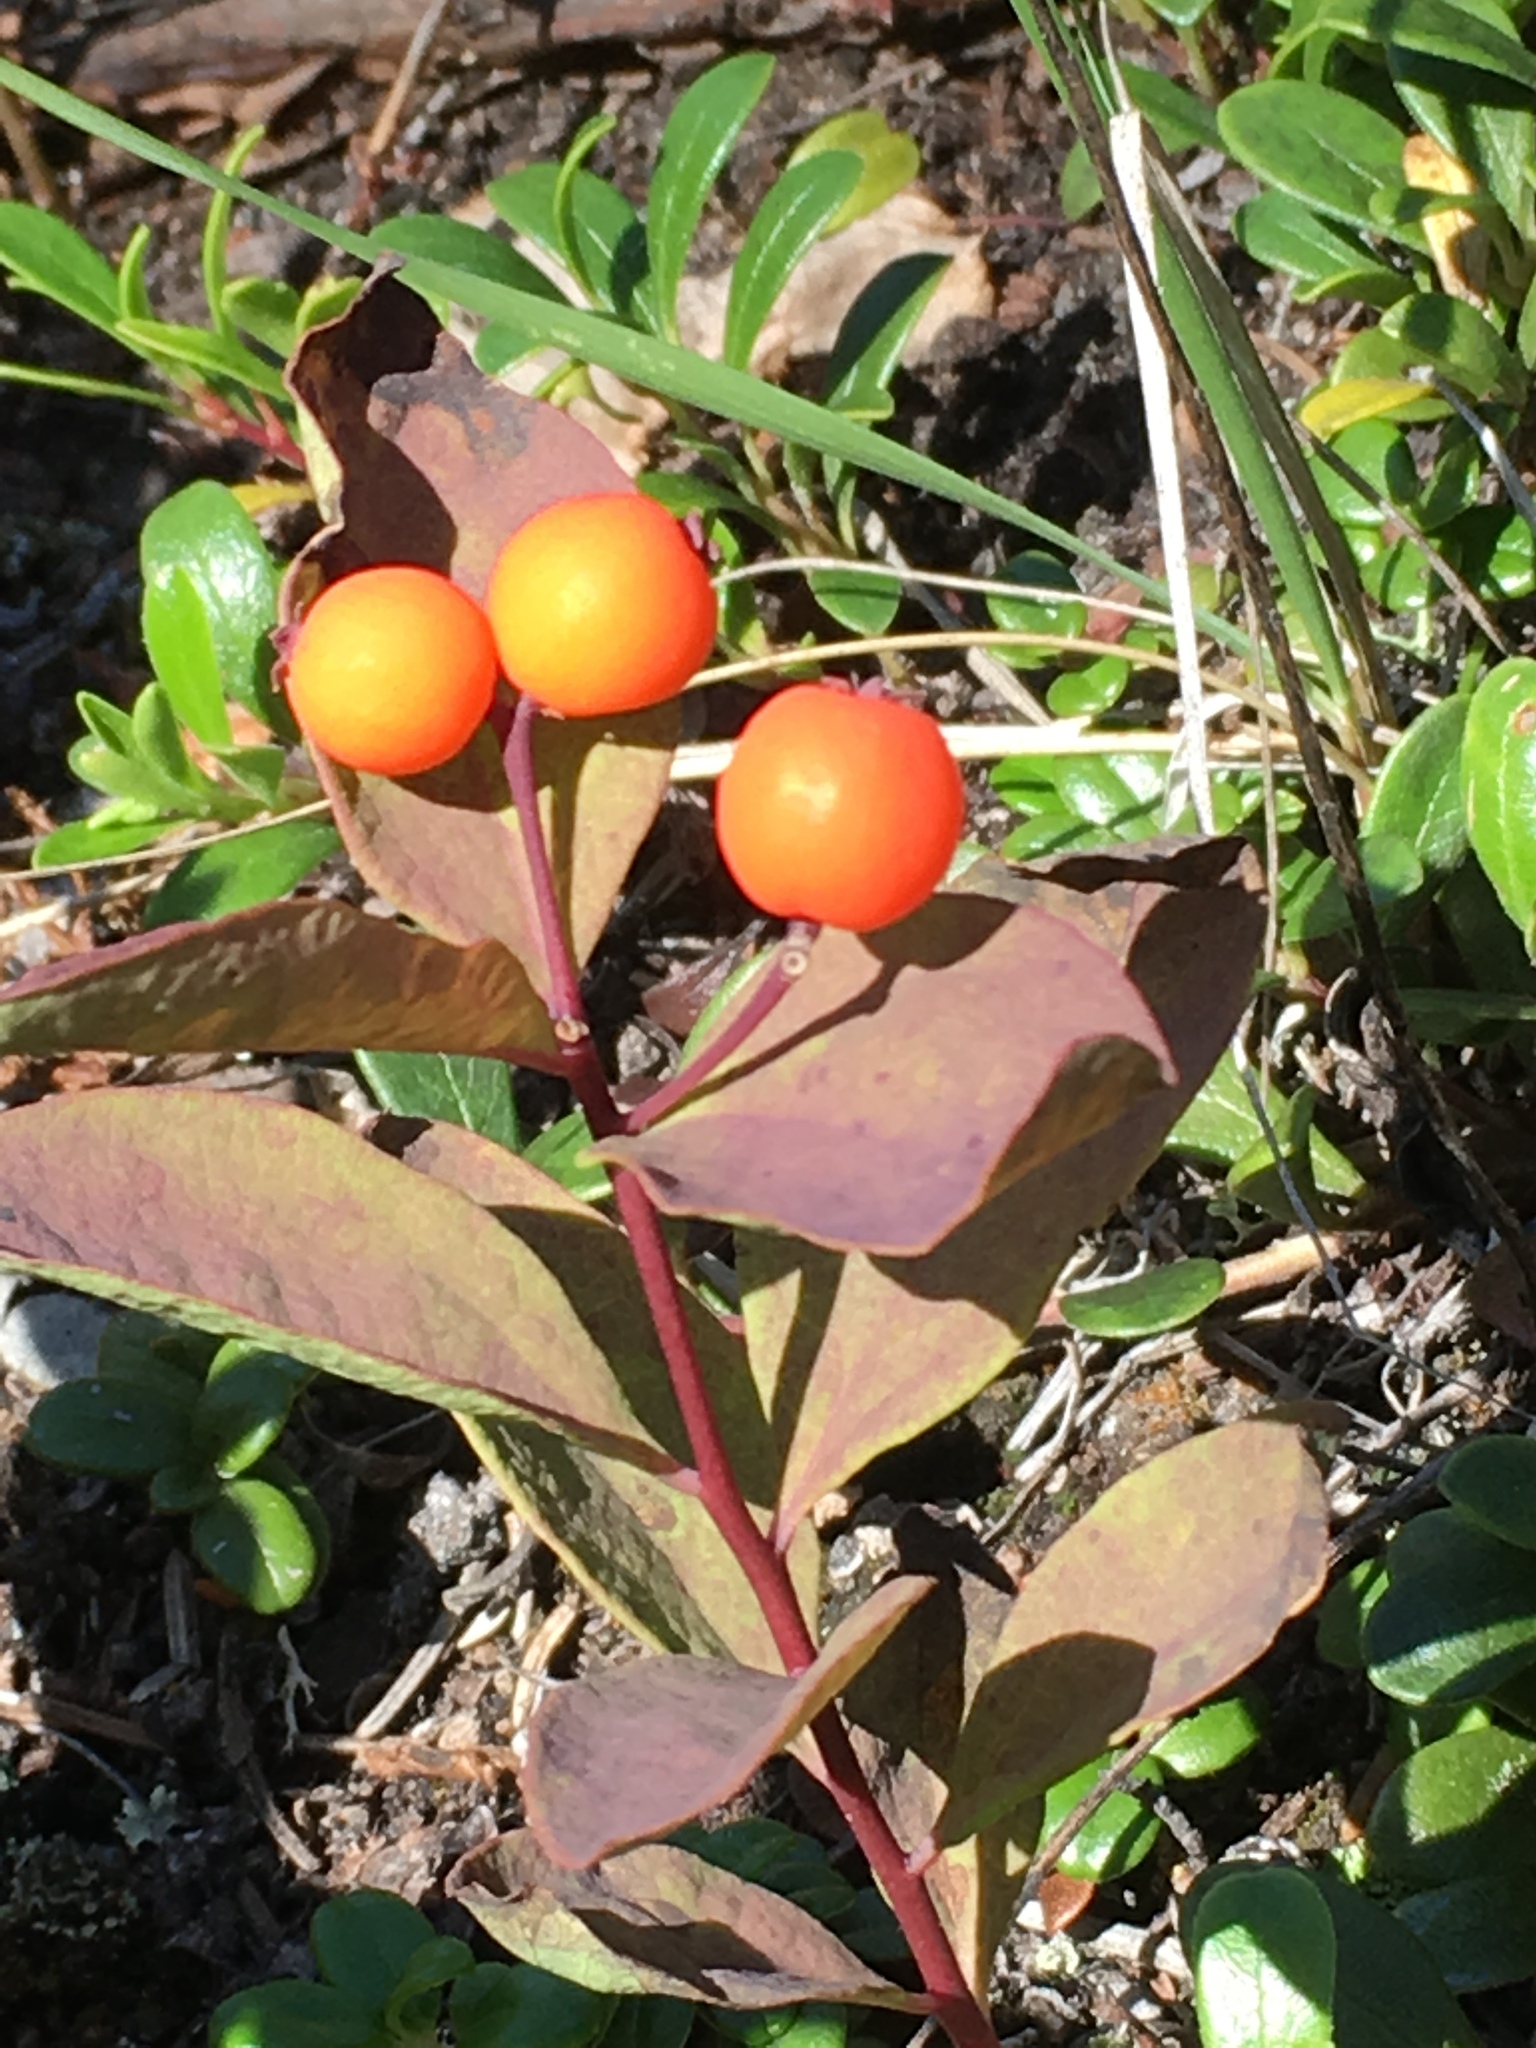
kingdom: Plantae
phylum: Tracheophyta
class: Magnoliopsida
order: Santalales
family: Comandraceae
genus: Geocaulon
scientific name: Geocaulon lividum
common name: Earthberry
